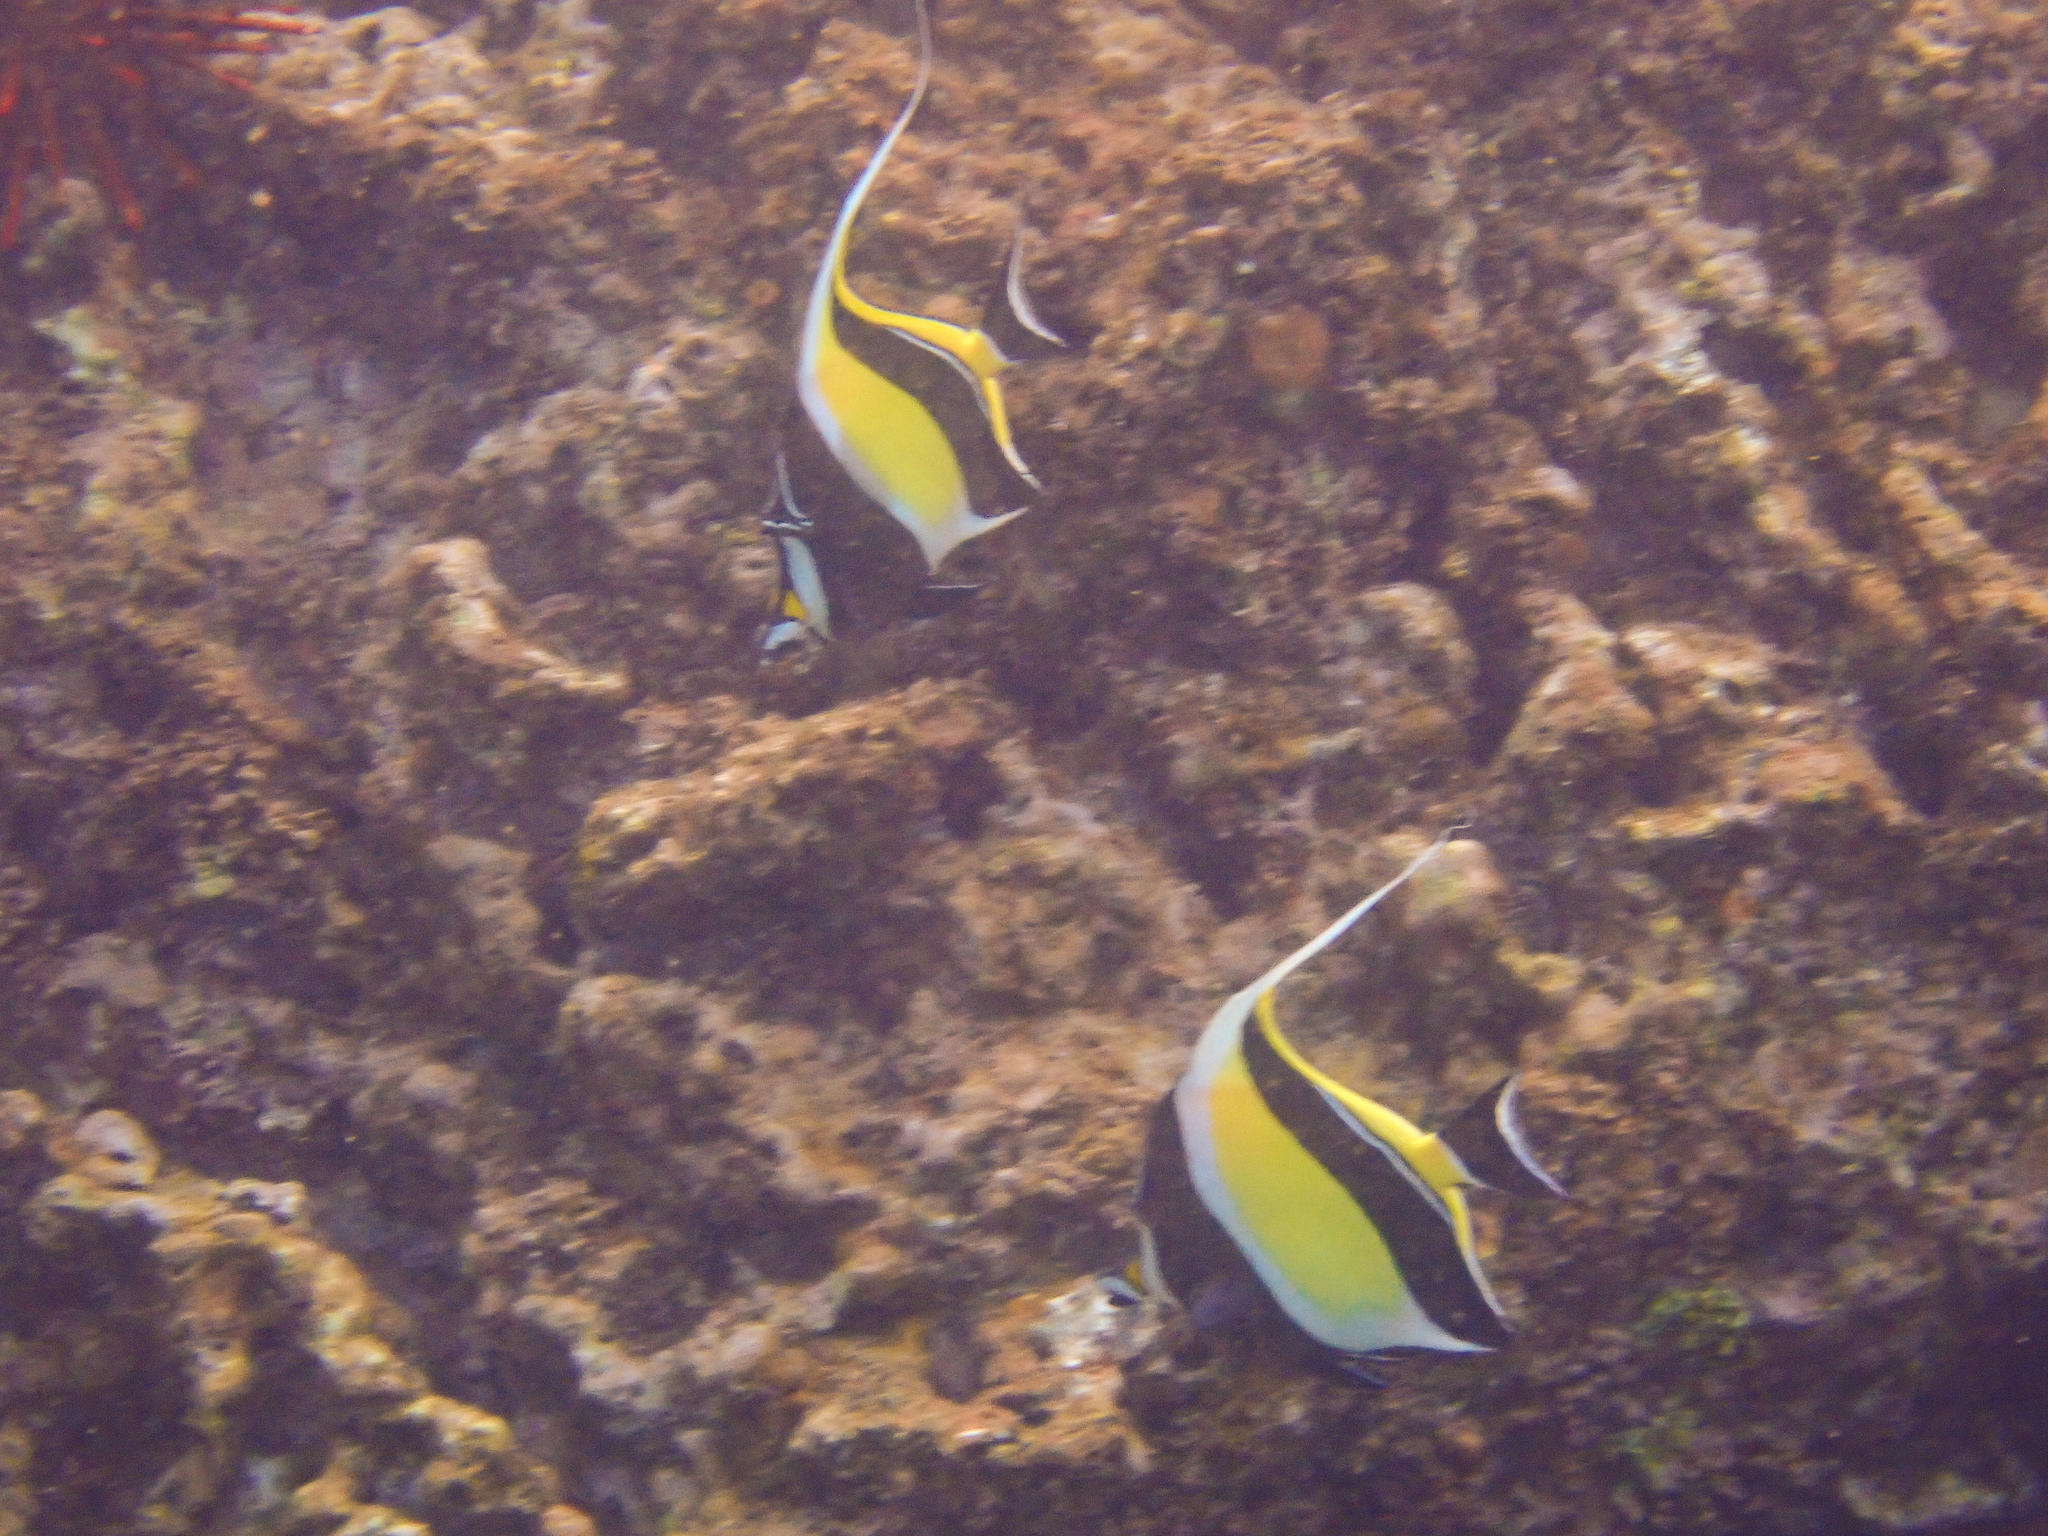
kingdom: Animalia
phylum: Chordata
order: Perciformes
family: Zanclidae
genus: Zanclus
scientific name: Zanclus cornutus
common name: Moorish idol
